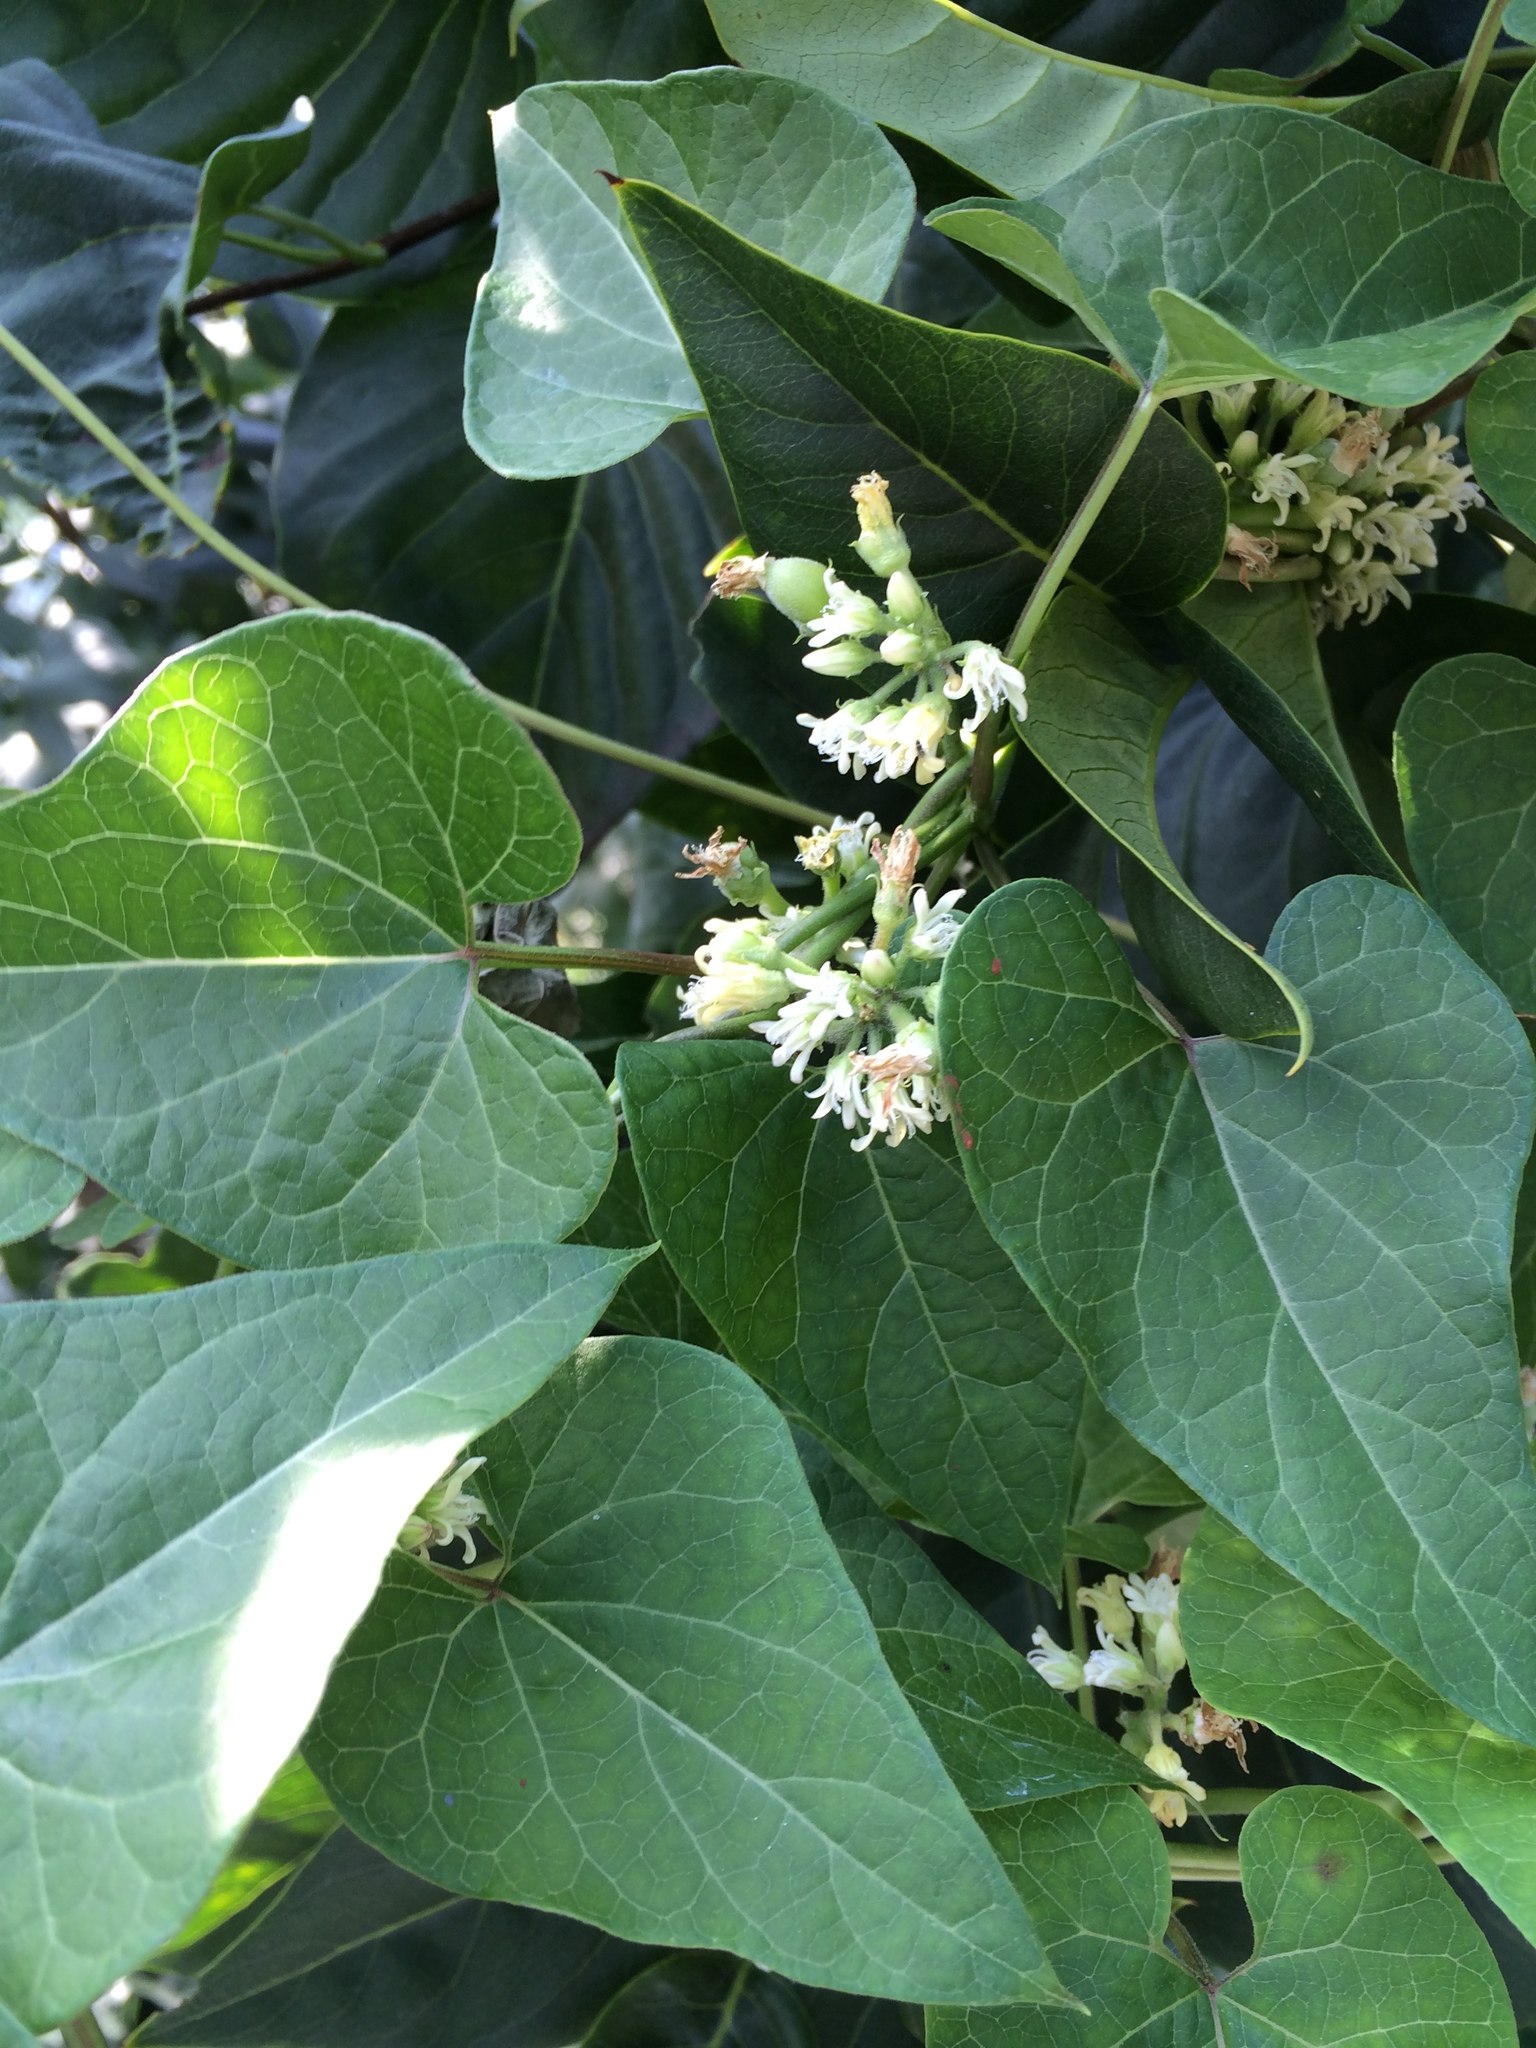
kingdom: Plantae
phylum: Tracheophyta
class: Magnoliopsida
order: Gentianales
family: Apocynaceae
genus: Cynanchum
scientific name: Cynanchum laeve
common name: Sandvine
